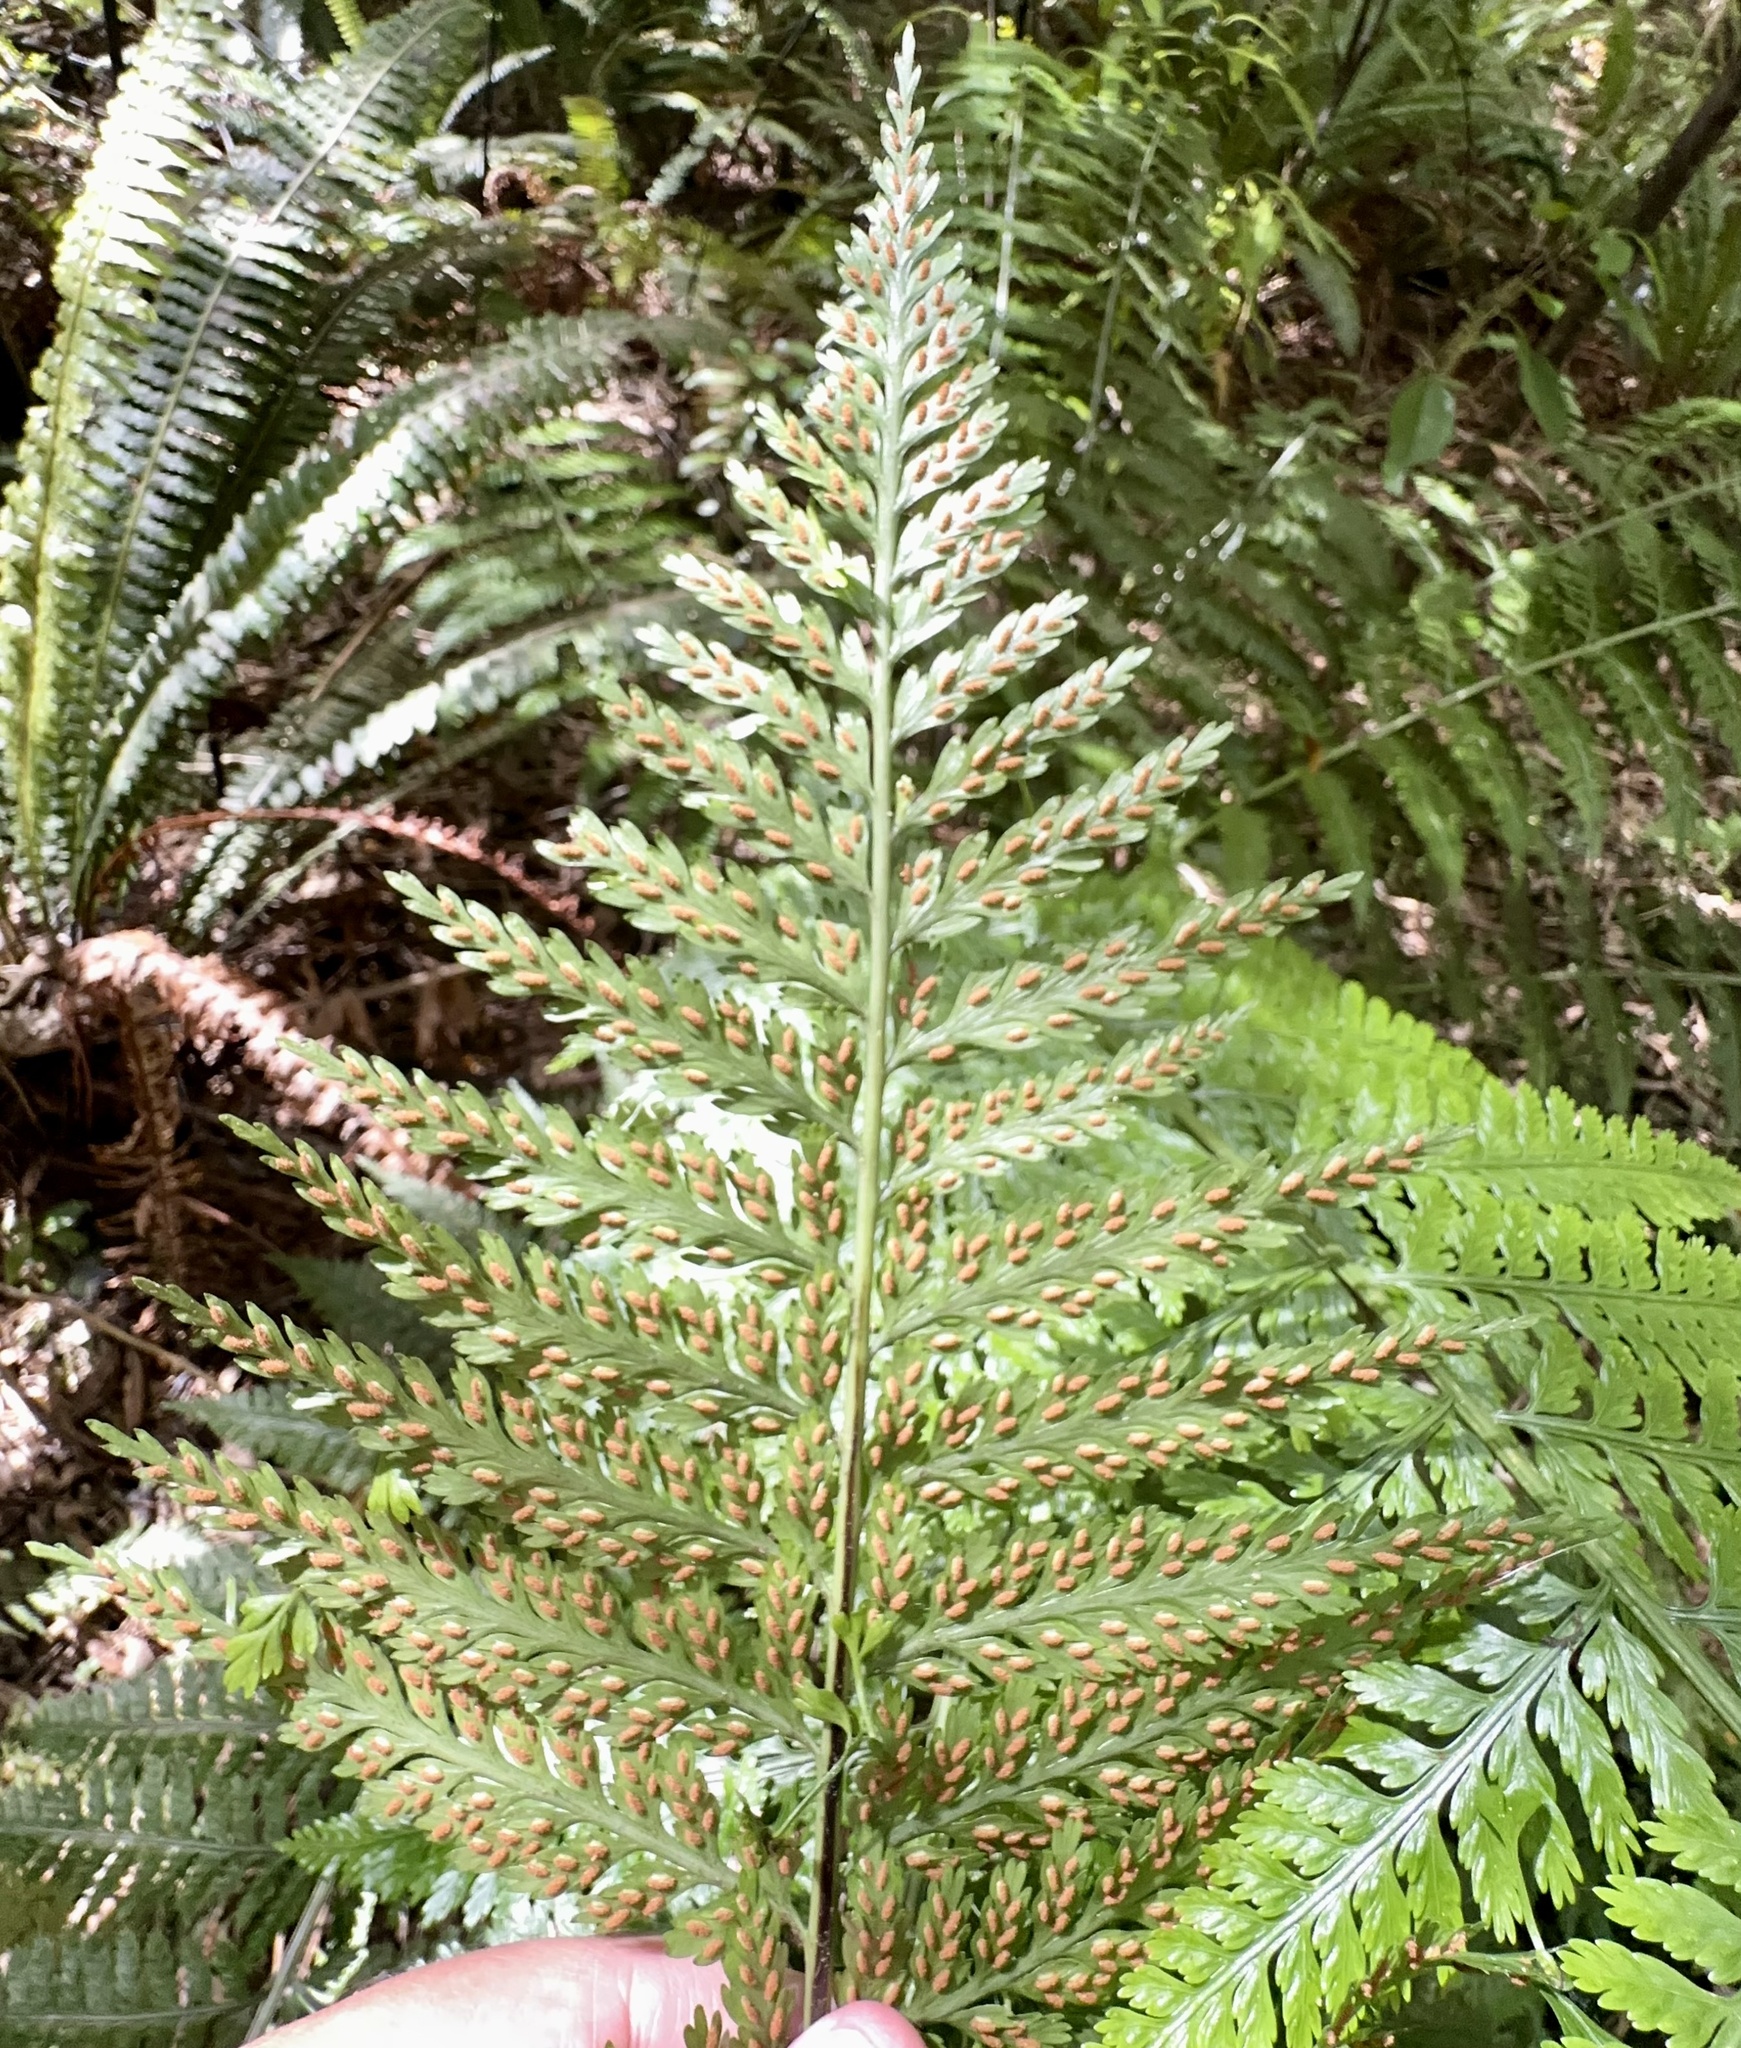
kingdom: Plantae
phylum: Tracheophyta
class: Polypodiopsida
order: Polypodiales
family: Aspleniaceae
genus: Asplenium
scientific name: Asplenium bulbiferum
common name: Mother fern
